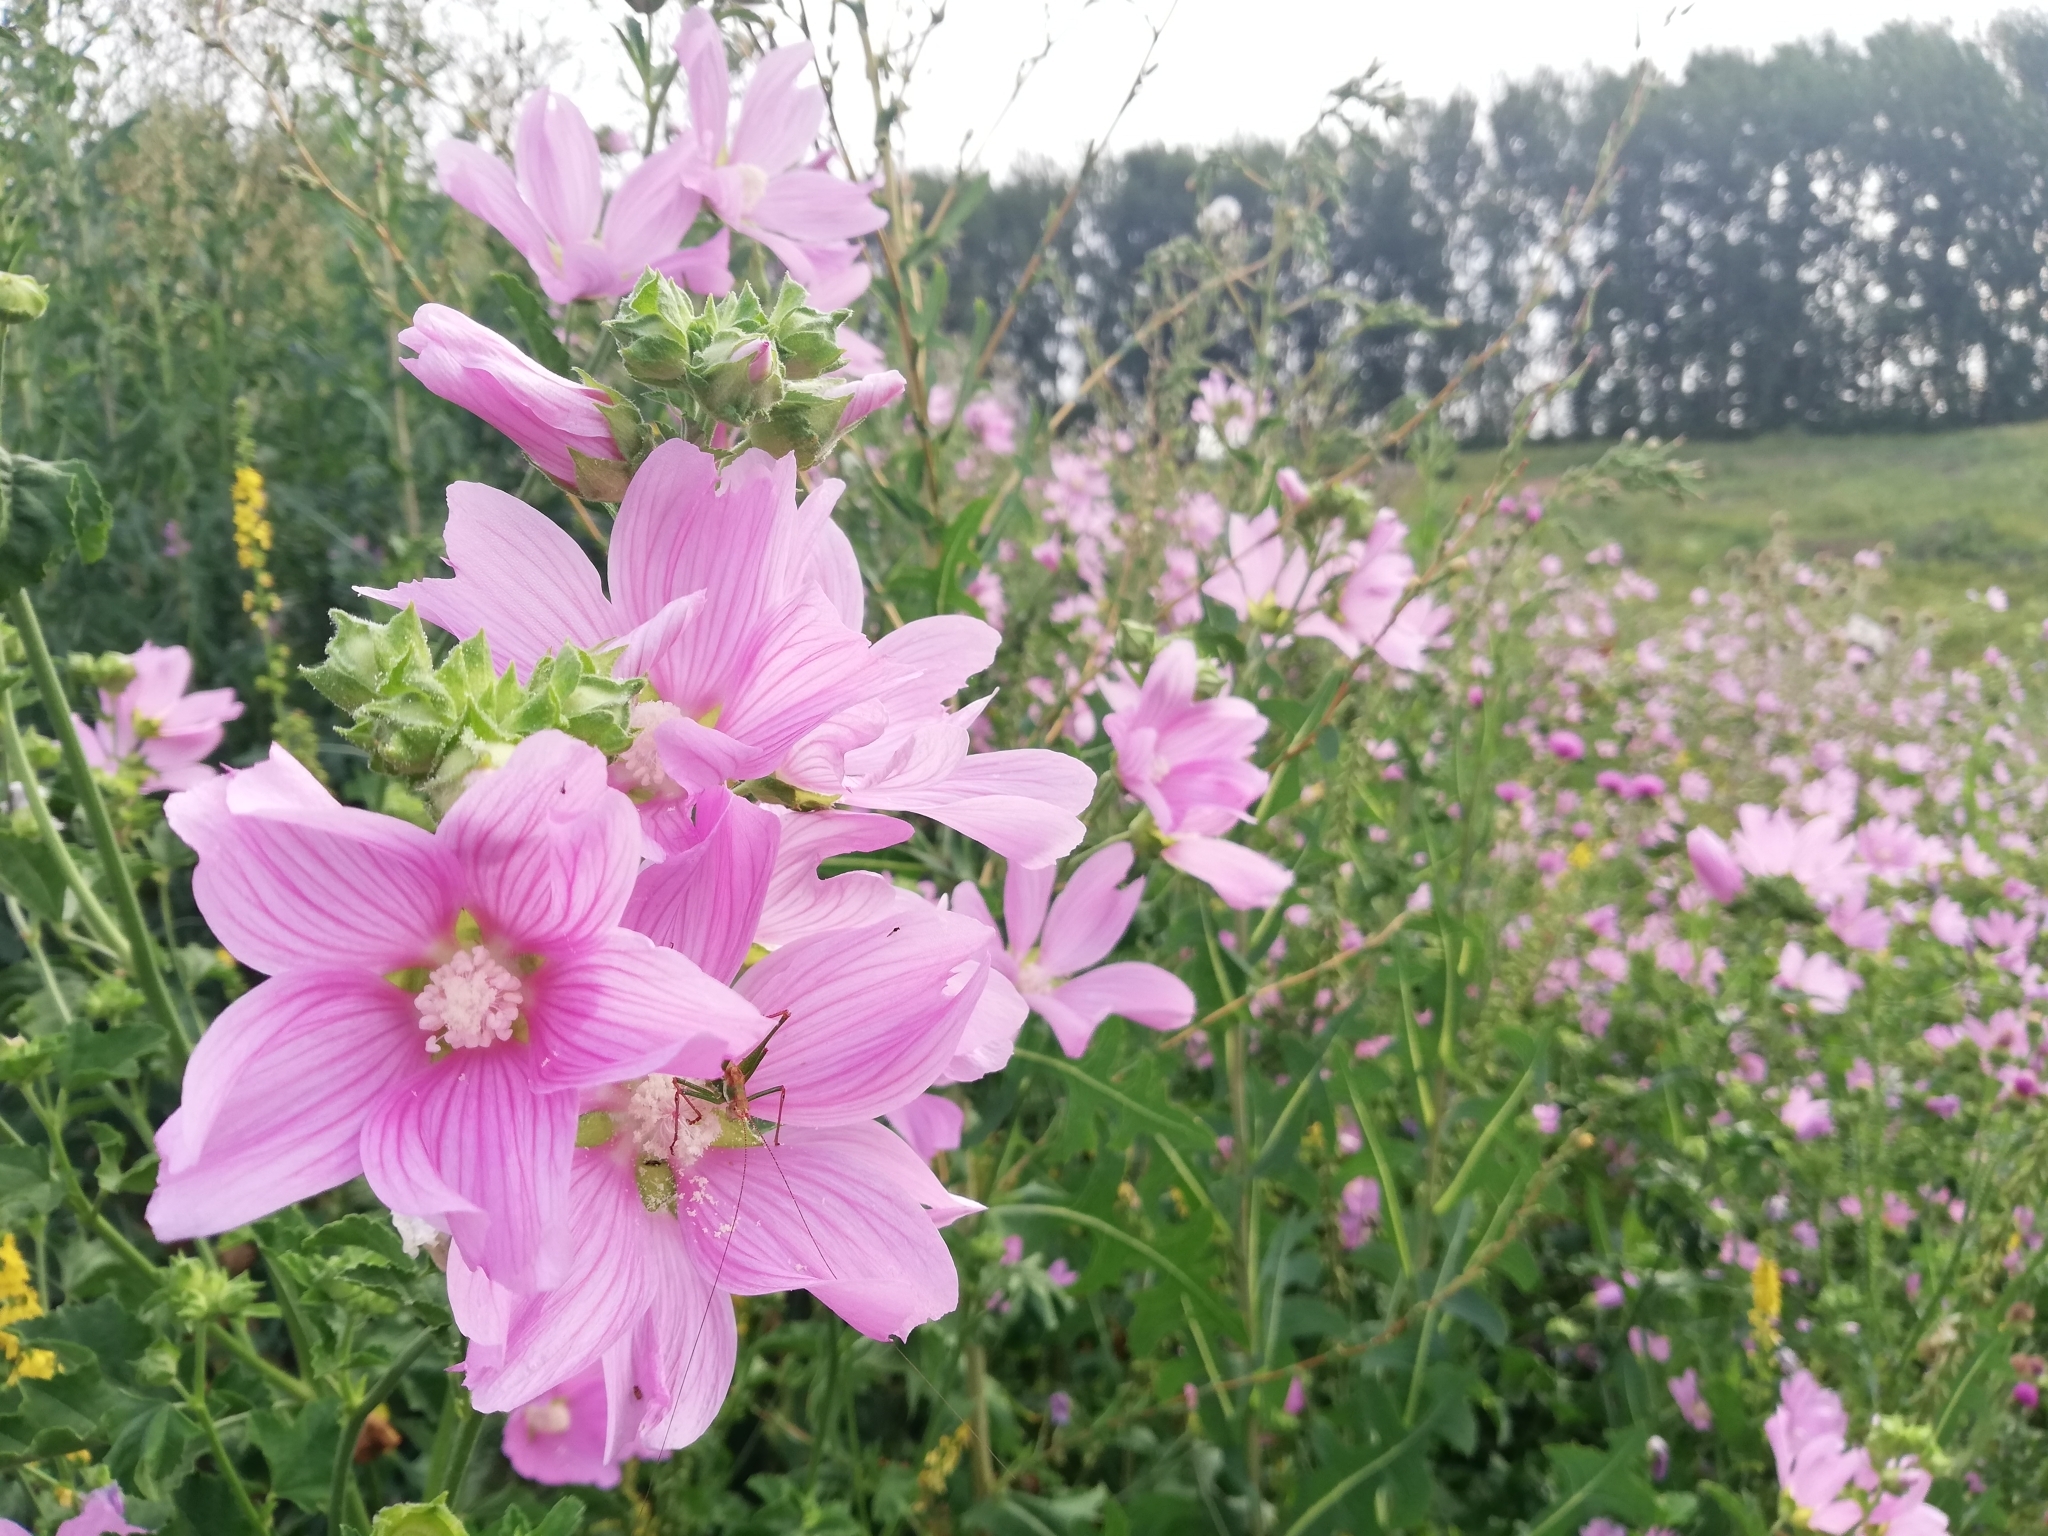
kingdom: Plantae
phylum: Tracheophyta
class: Magnoliopsida
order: Malvales
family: Malvaceae
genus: Malva
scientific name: Malva thuringiaca
